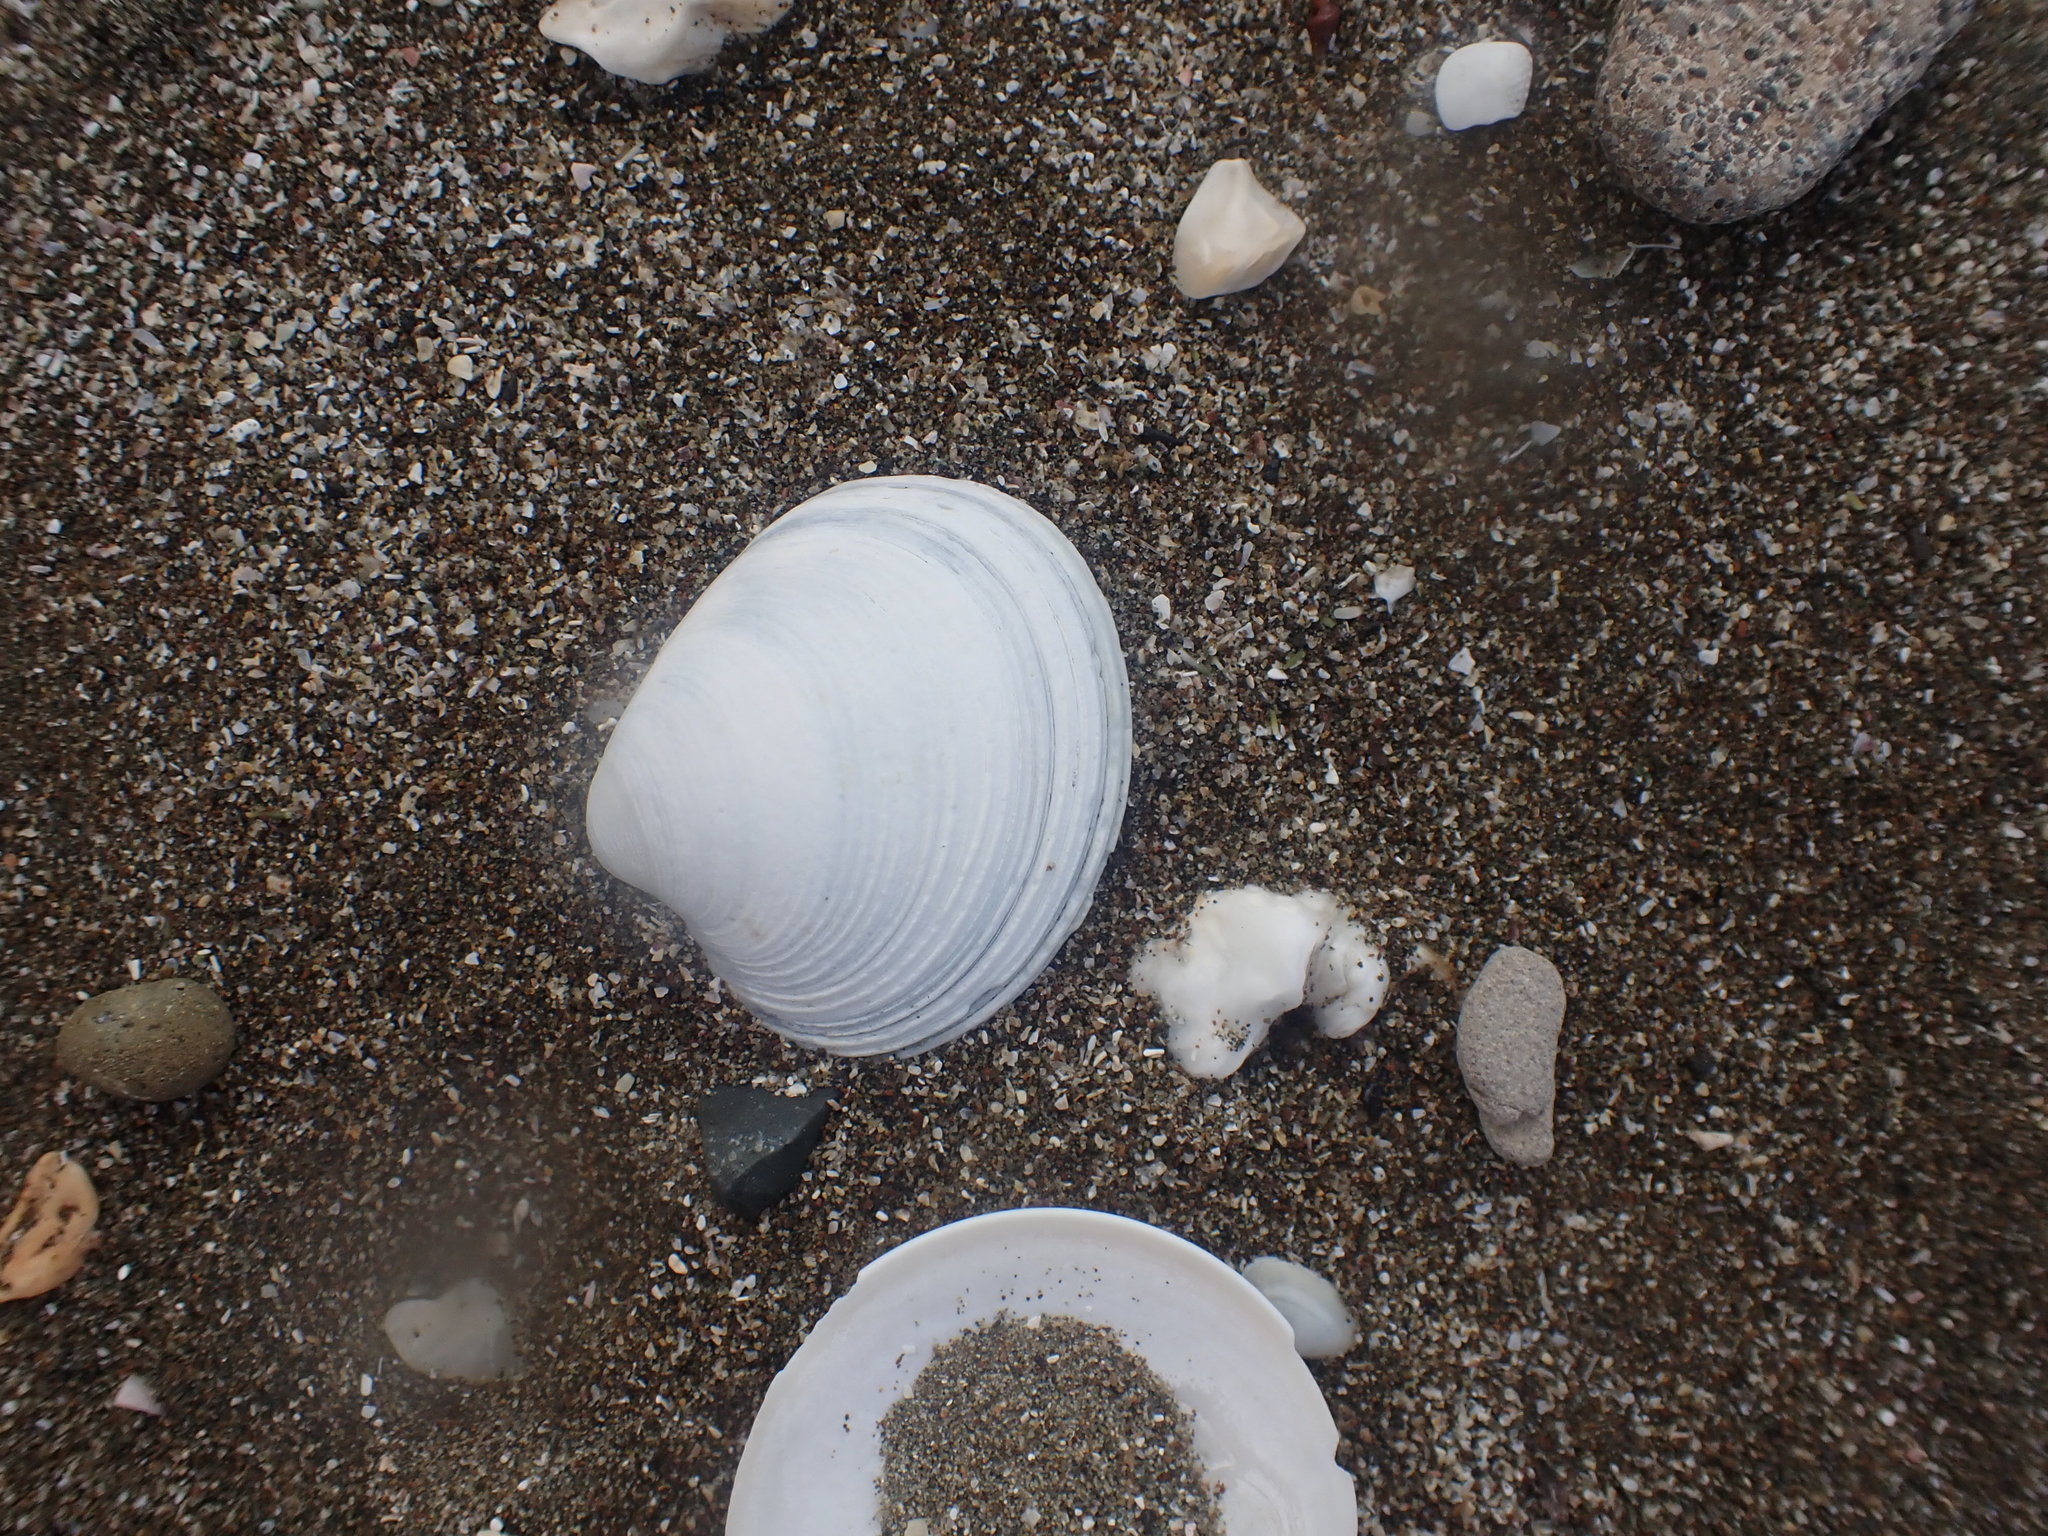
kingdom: Animalia
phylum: Mollusca
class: Bivalvia
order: Venerida
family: Veneridae
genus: Dosina
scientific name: Dosina mactracea
